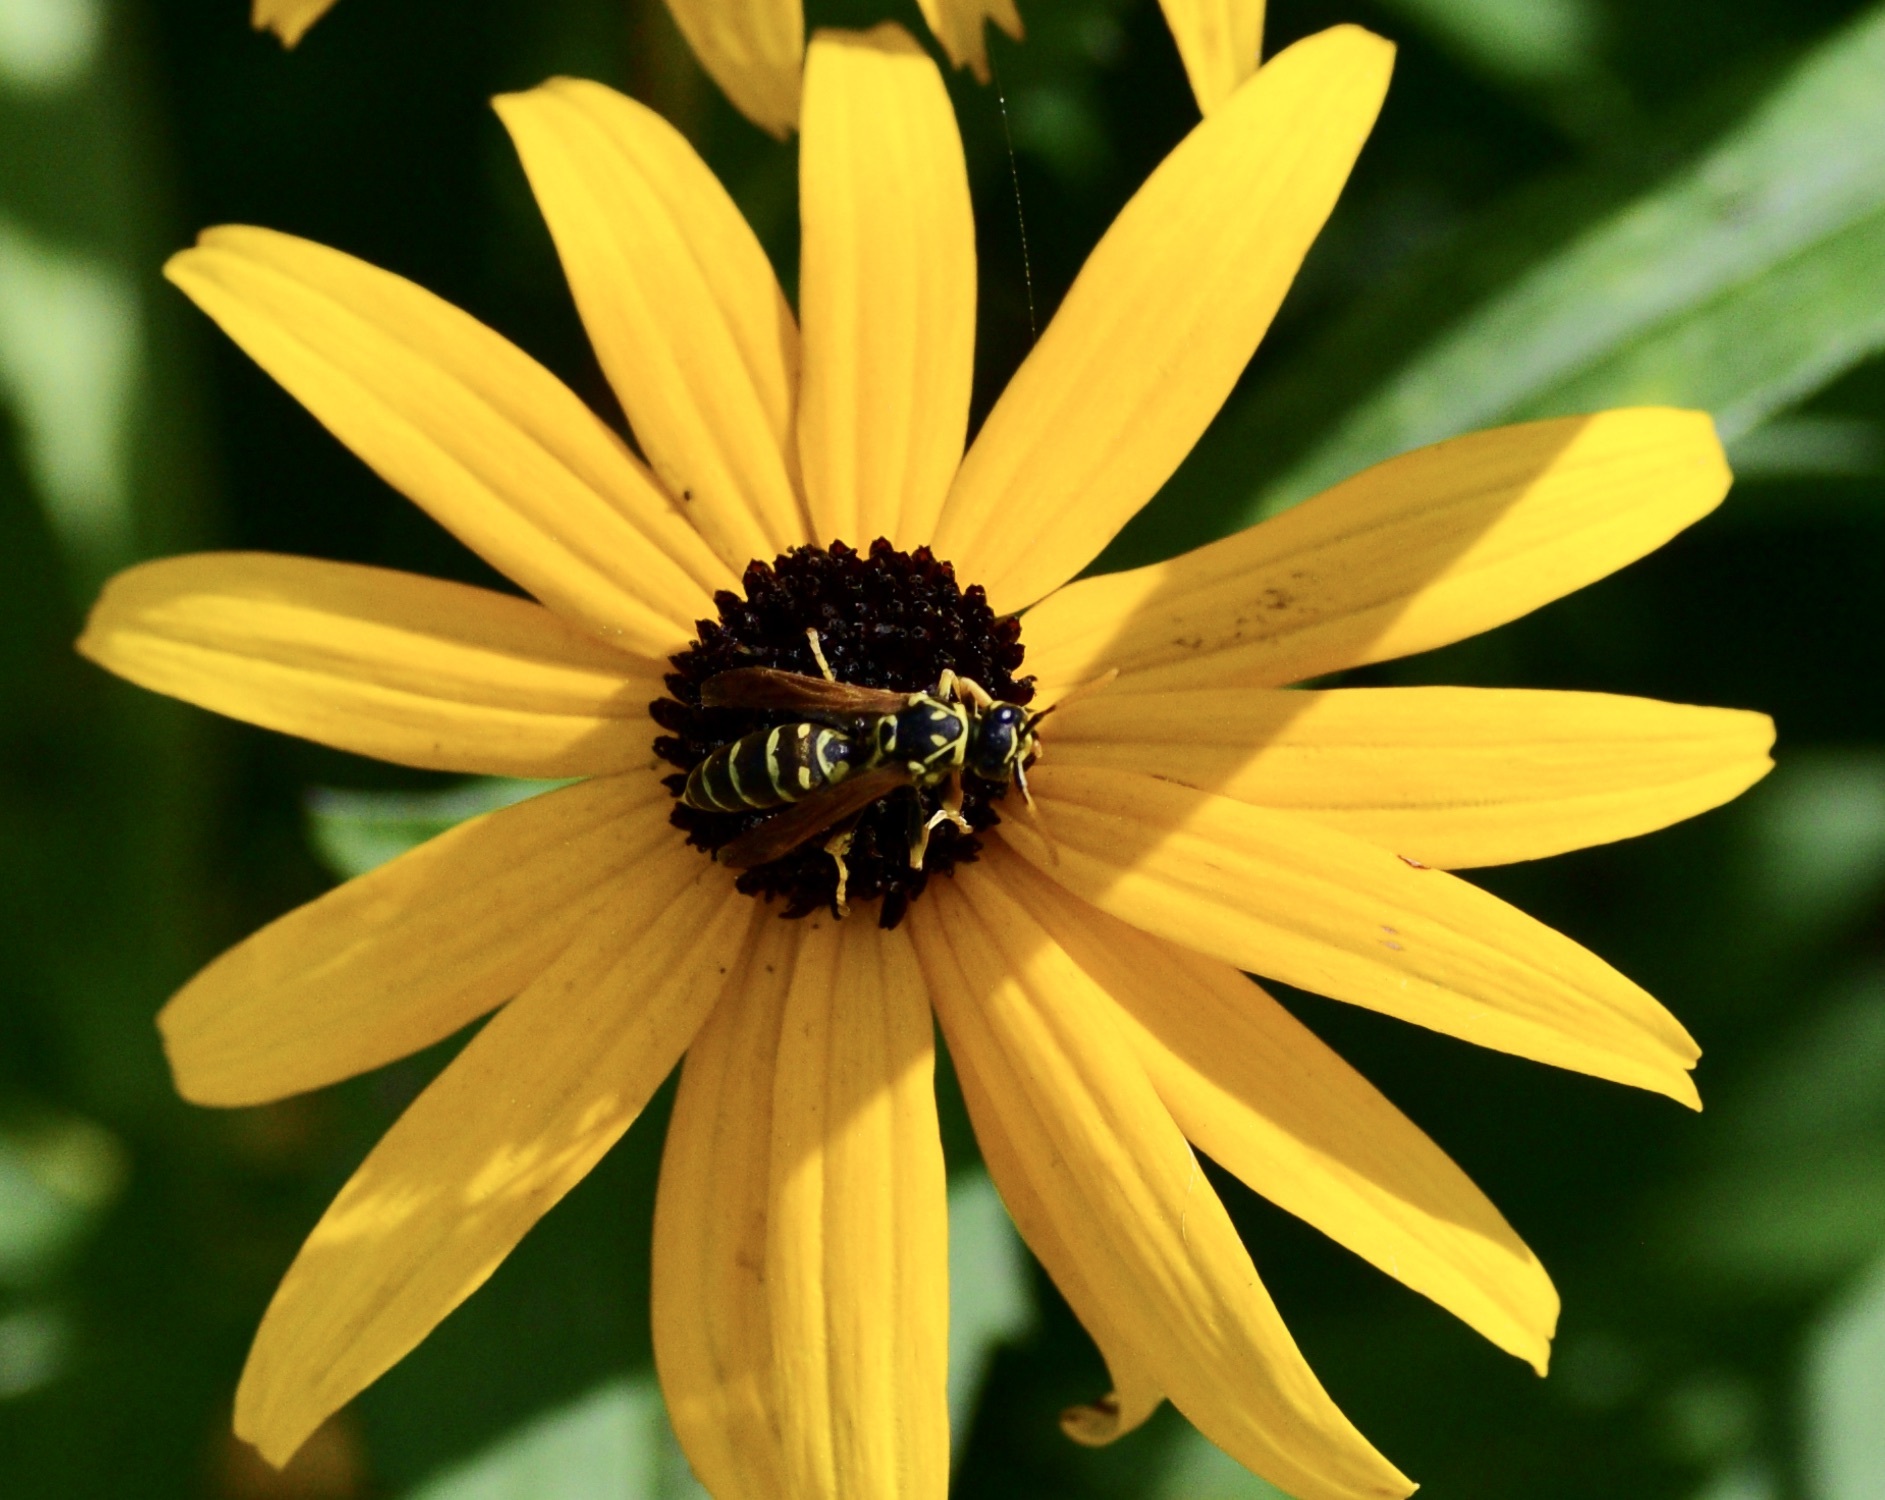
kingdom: Animalia
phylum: Arthropoda
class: Insecta
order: Hymenoptera
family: Eumenidae
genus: Polistes
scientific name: Polistes dominula
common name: Paper wasp
